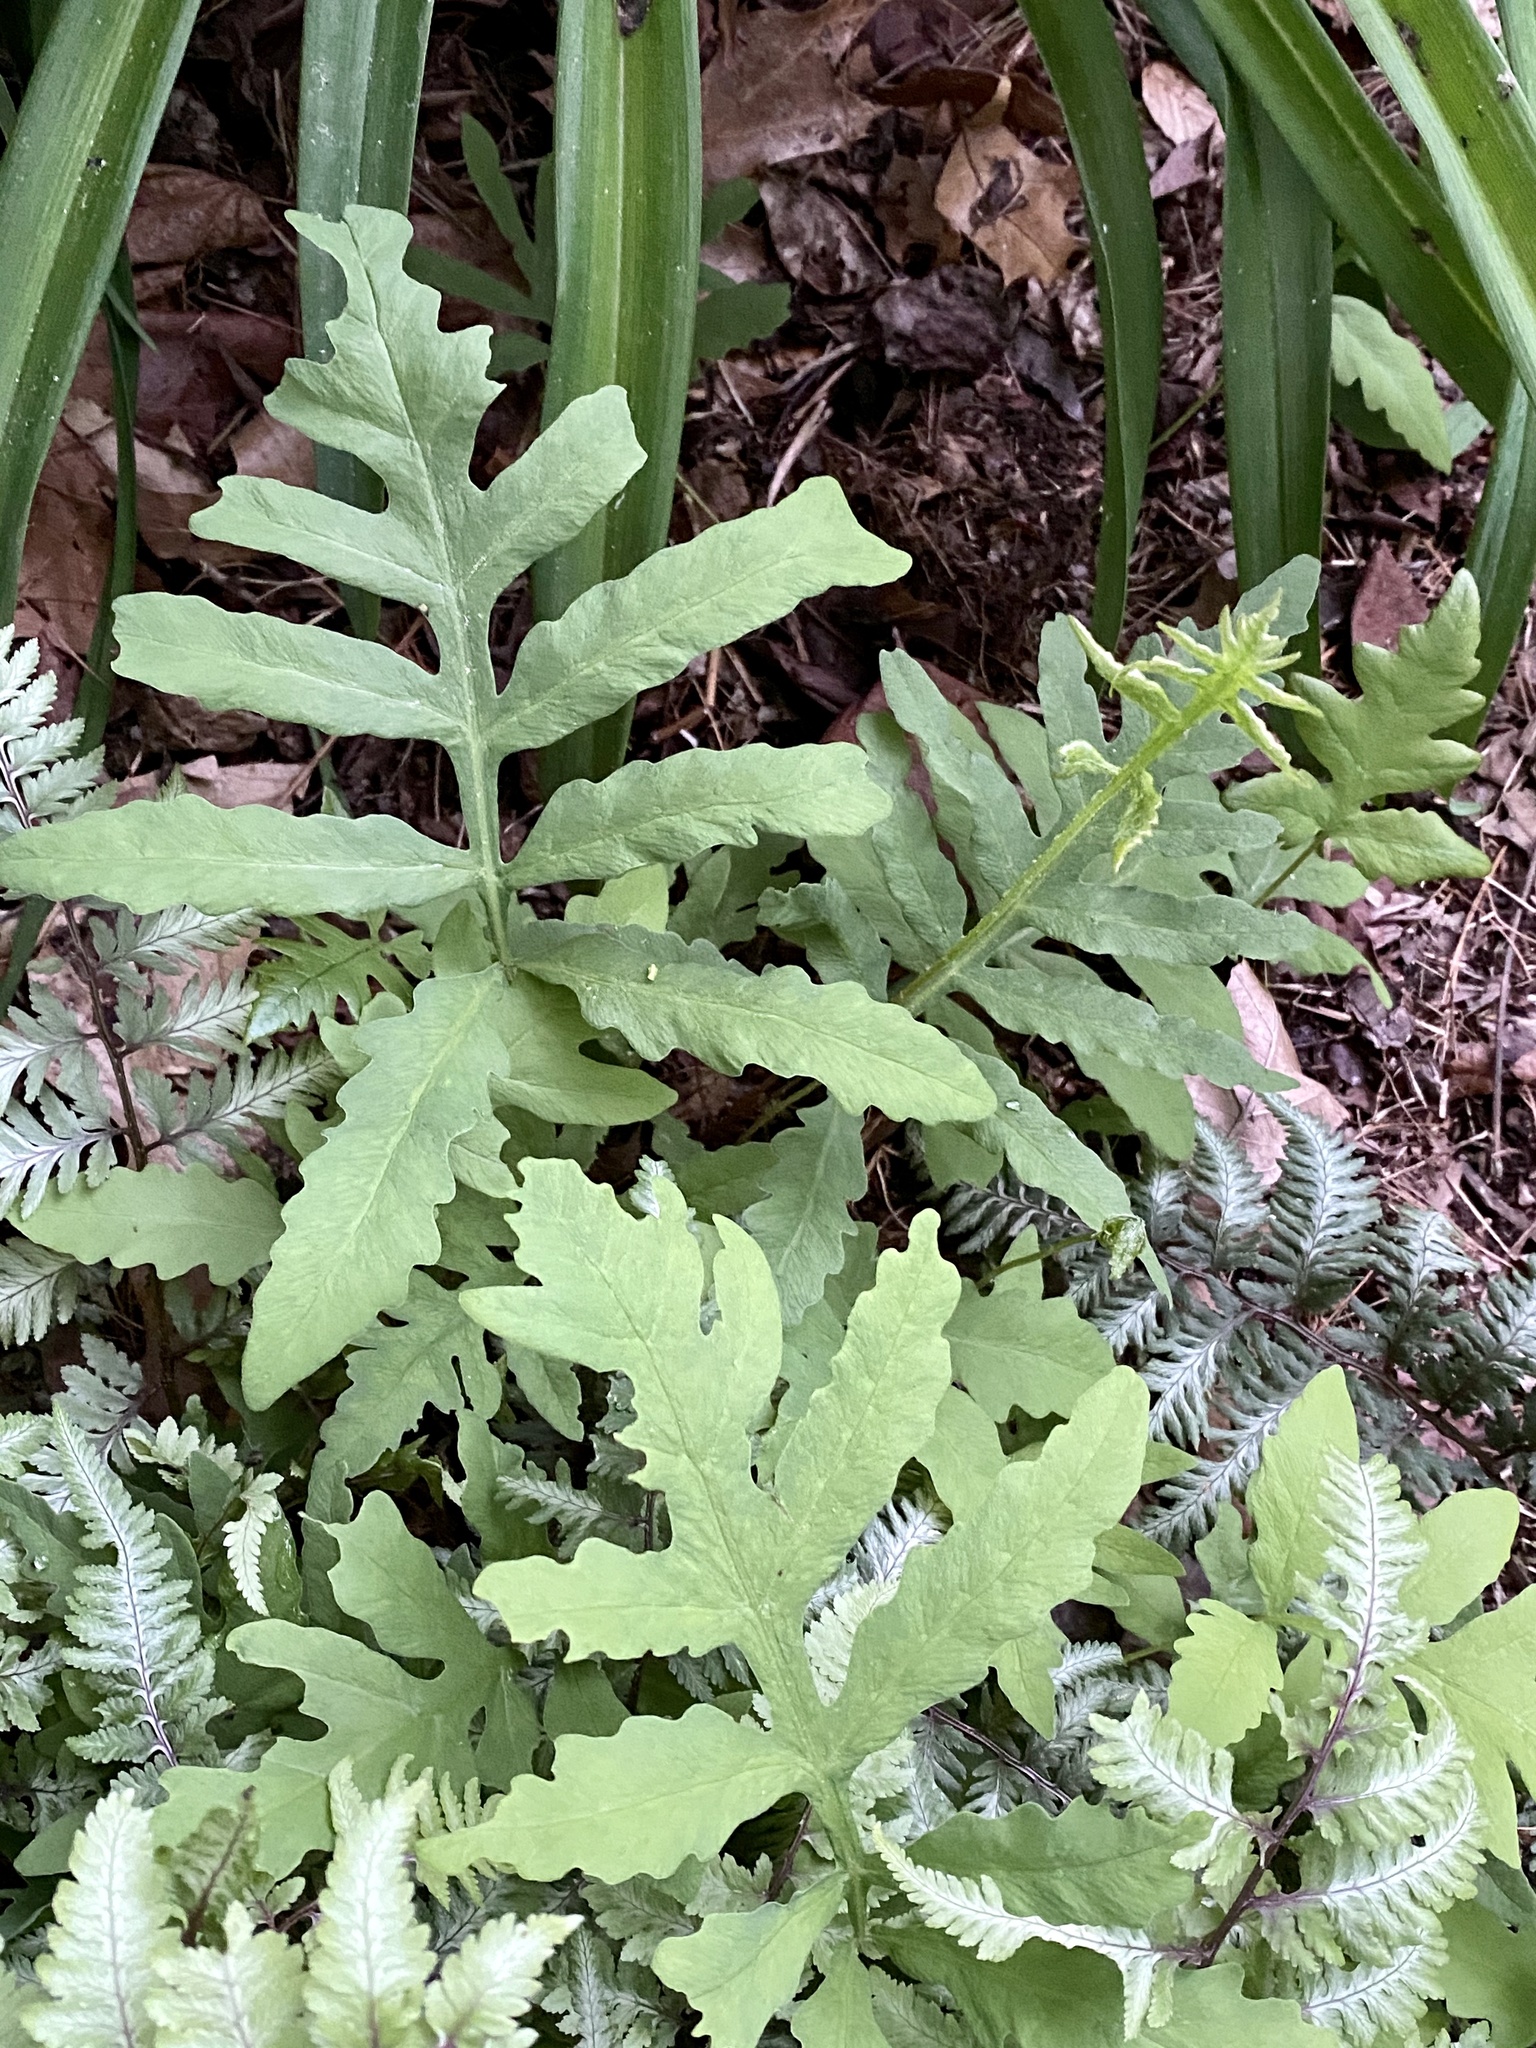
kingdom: Plantae
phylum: Tracheophyta
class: Polypodiopsida
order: Polypodiales
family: Onocleaceae
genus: Onoclea
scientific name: Onoclea sensibilis
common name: Sensitive fern
